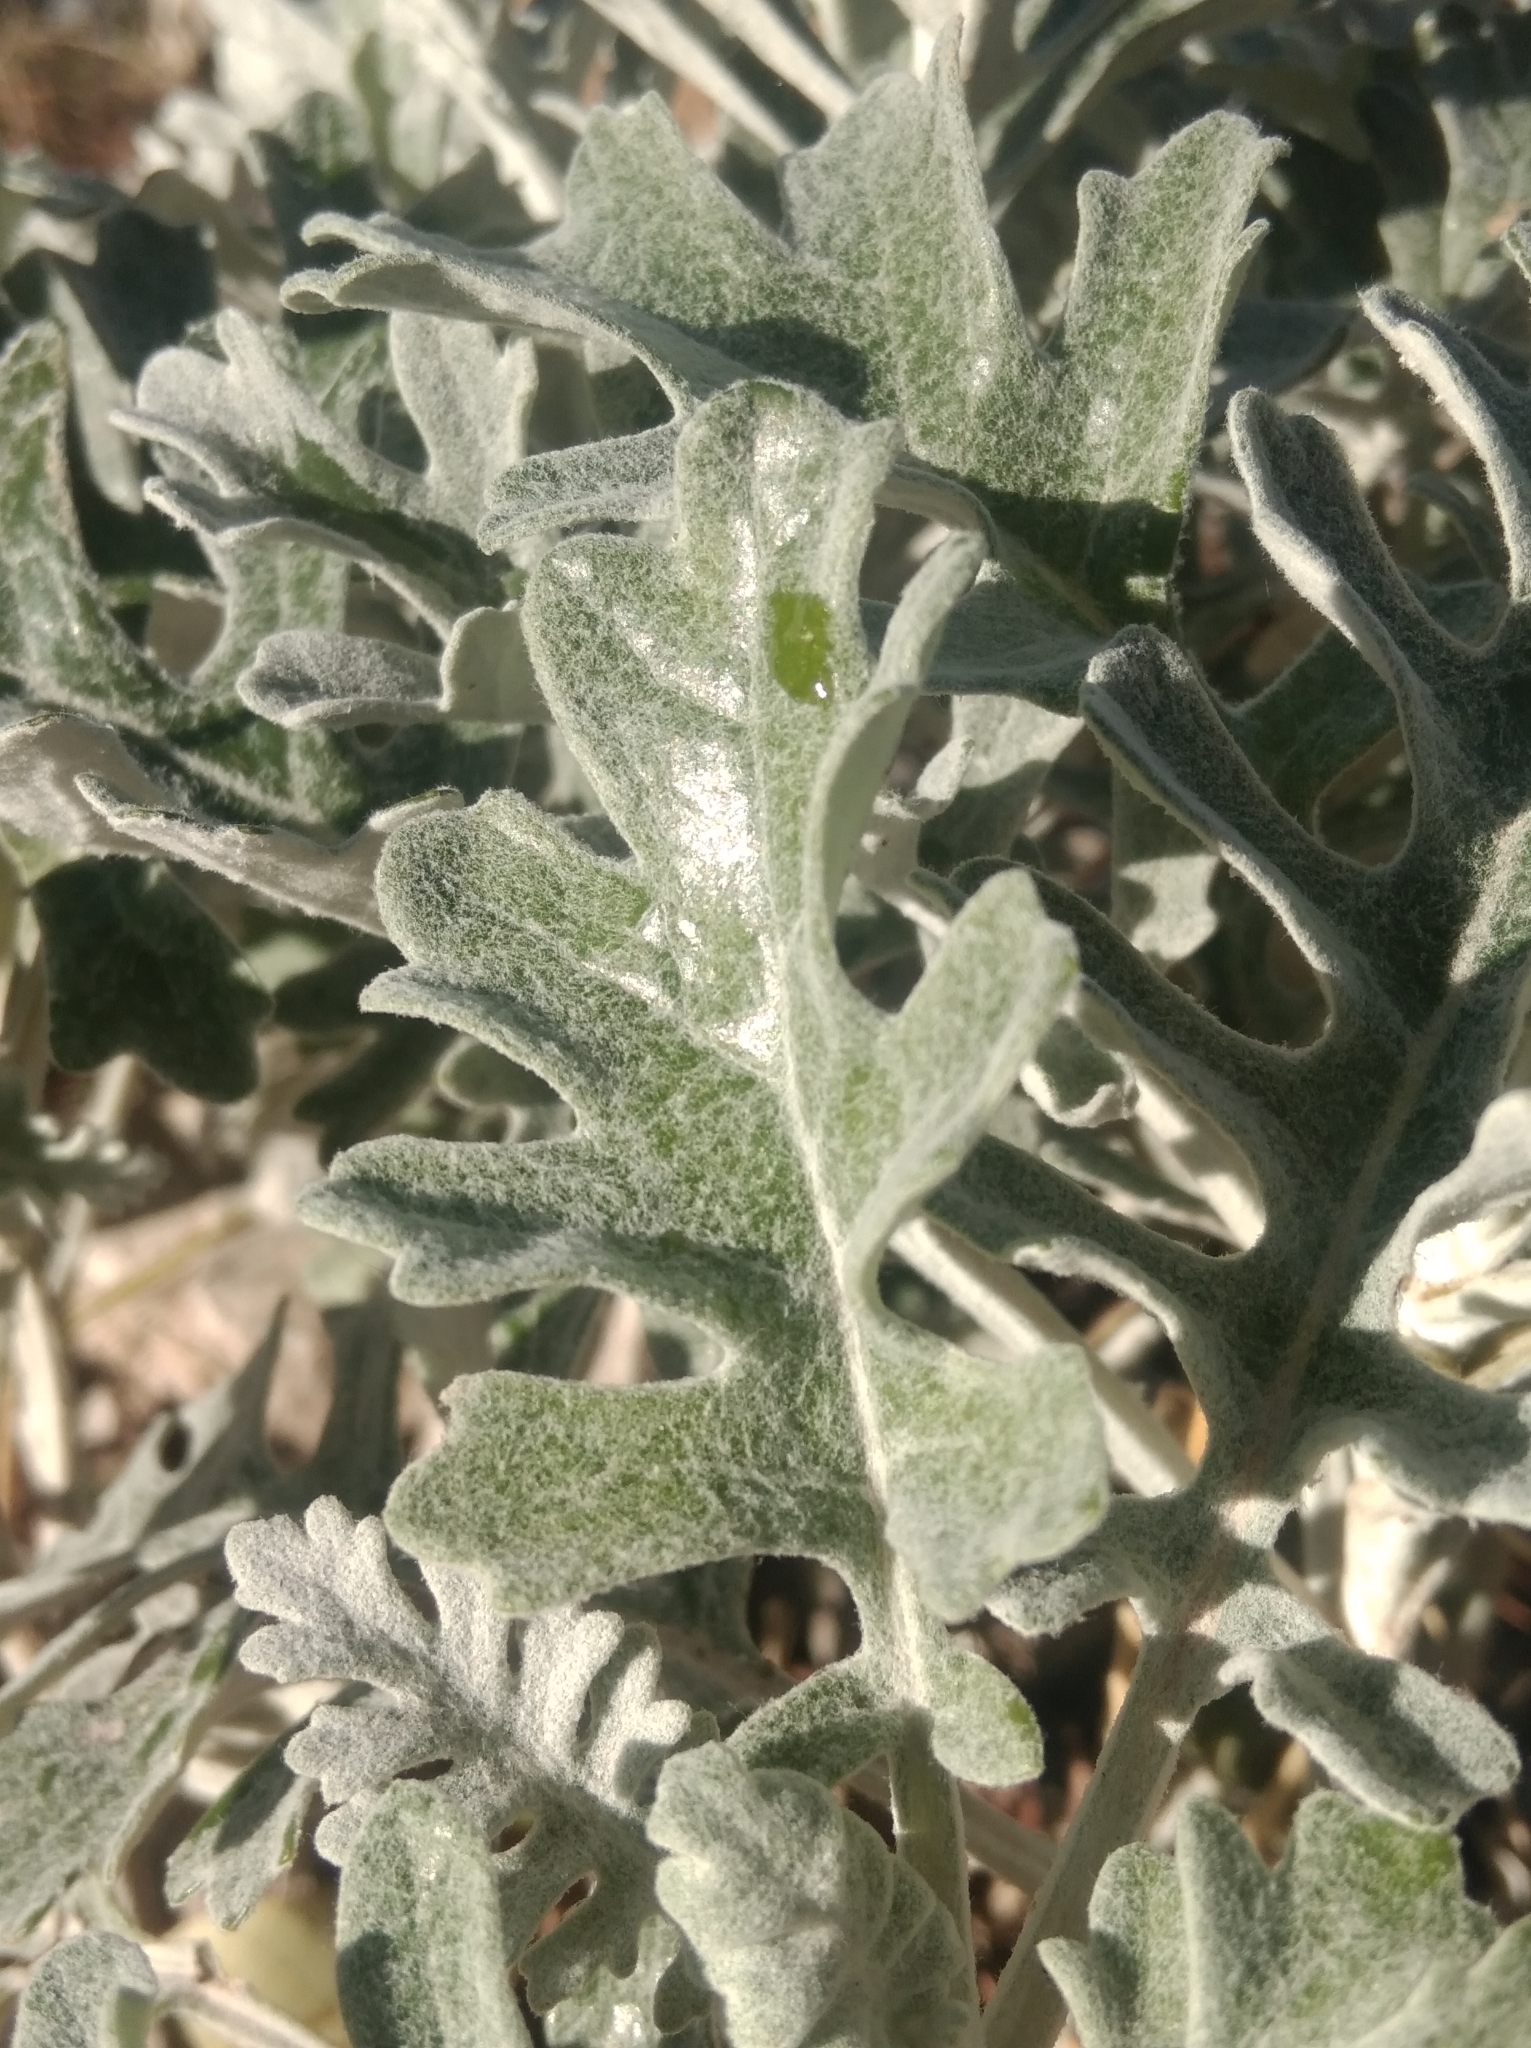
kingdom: Plantae
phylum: Tracheophyta
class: Magnoliopsida
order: Asterales
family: Asteraceae
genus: Jacobaea
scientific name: Jacobaea maritima
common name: Silver ragwort
